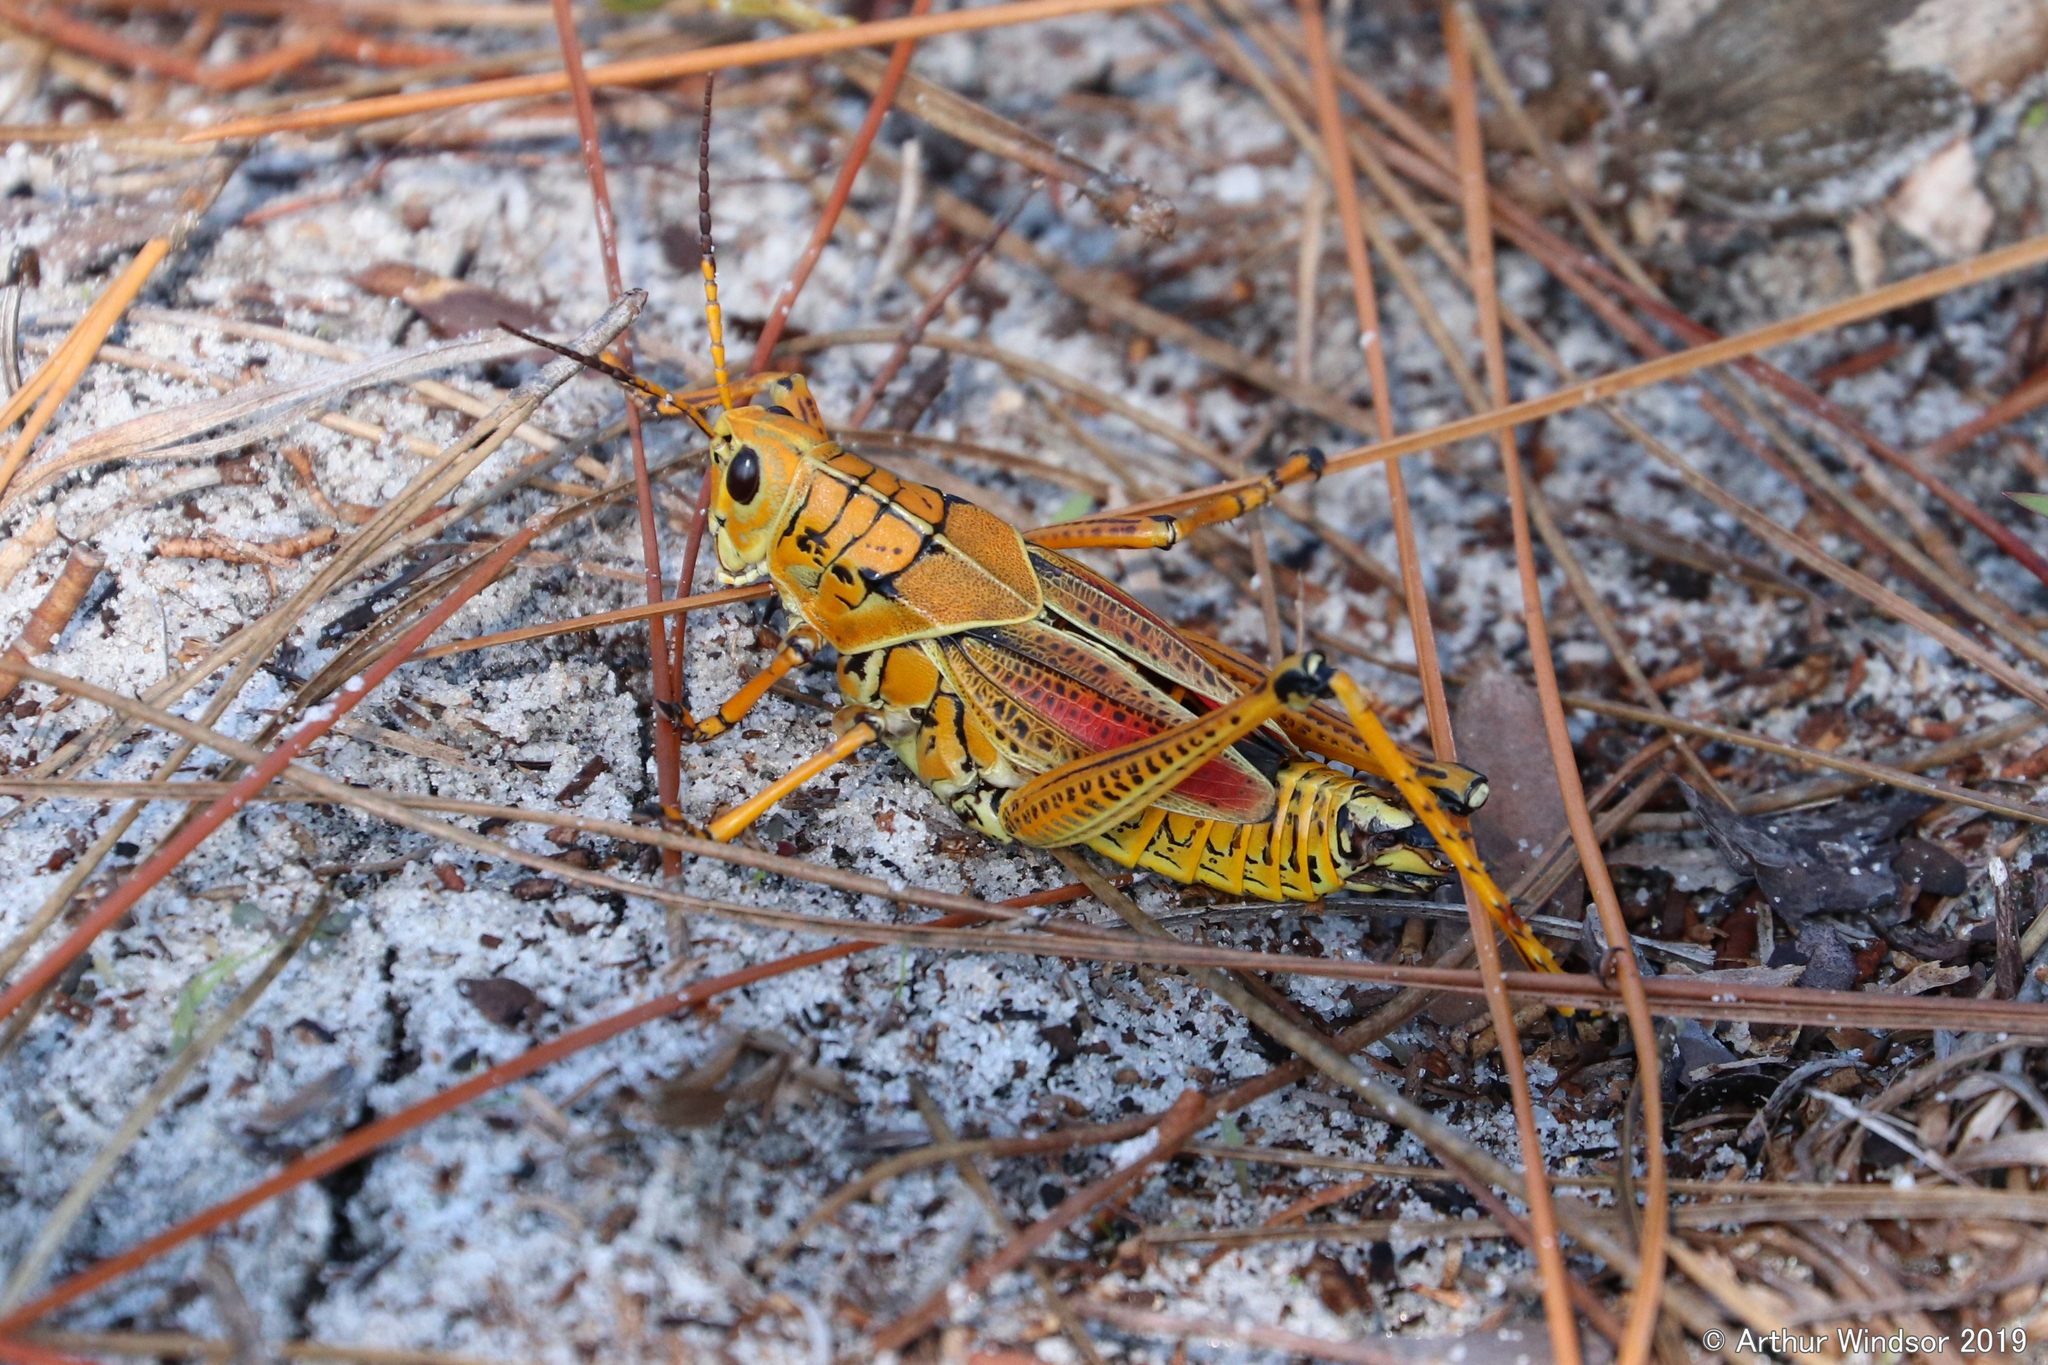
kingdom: Animalia
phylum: Arthropoda
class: Insecta
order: Orthoptera
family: Romaleidae
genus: Romalea
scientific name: Romalea microptera
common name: Eastern lubber grasshopper
